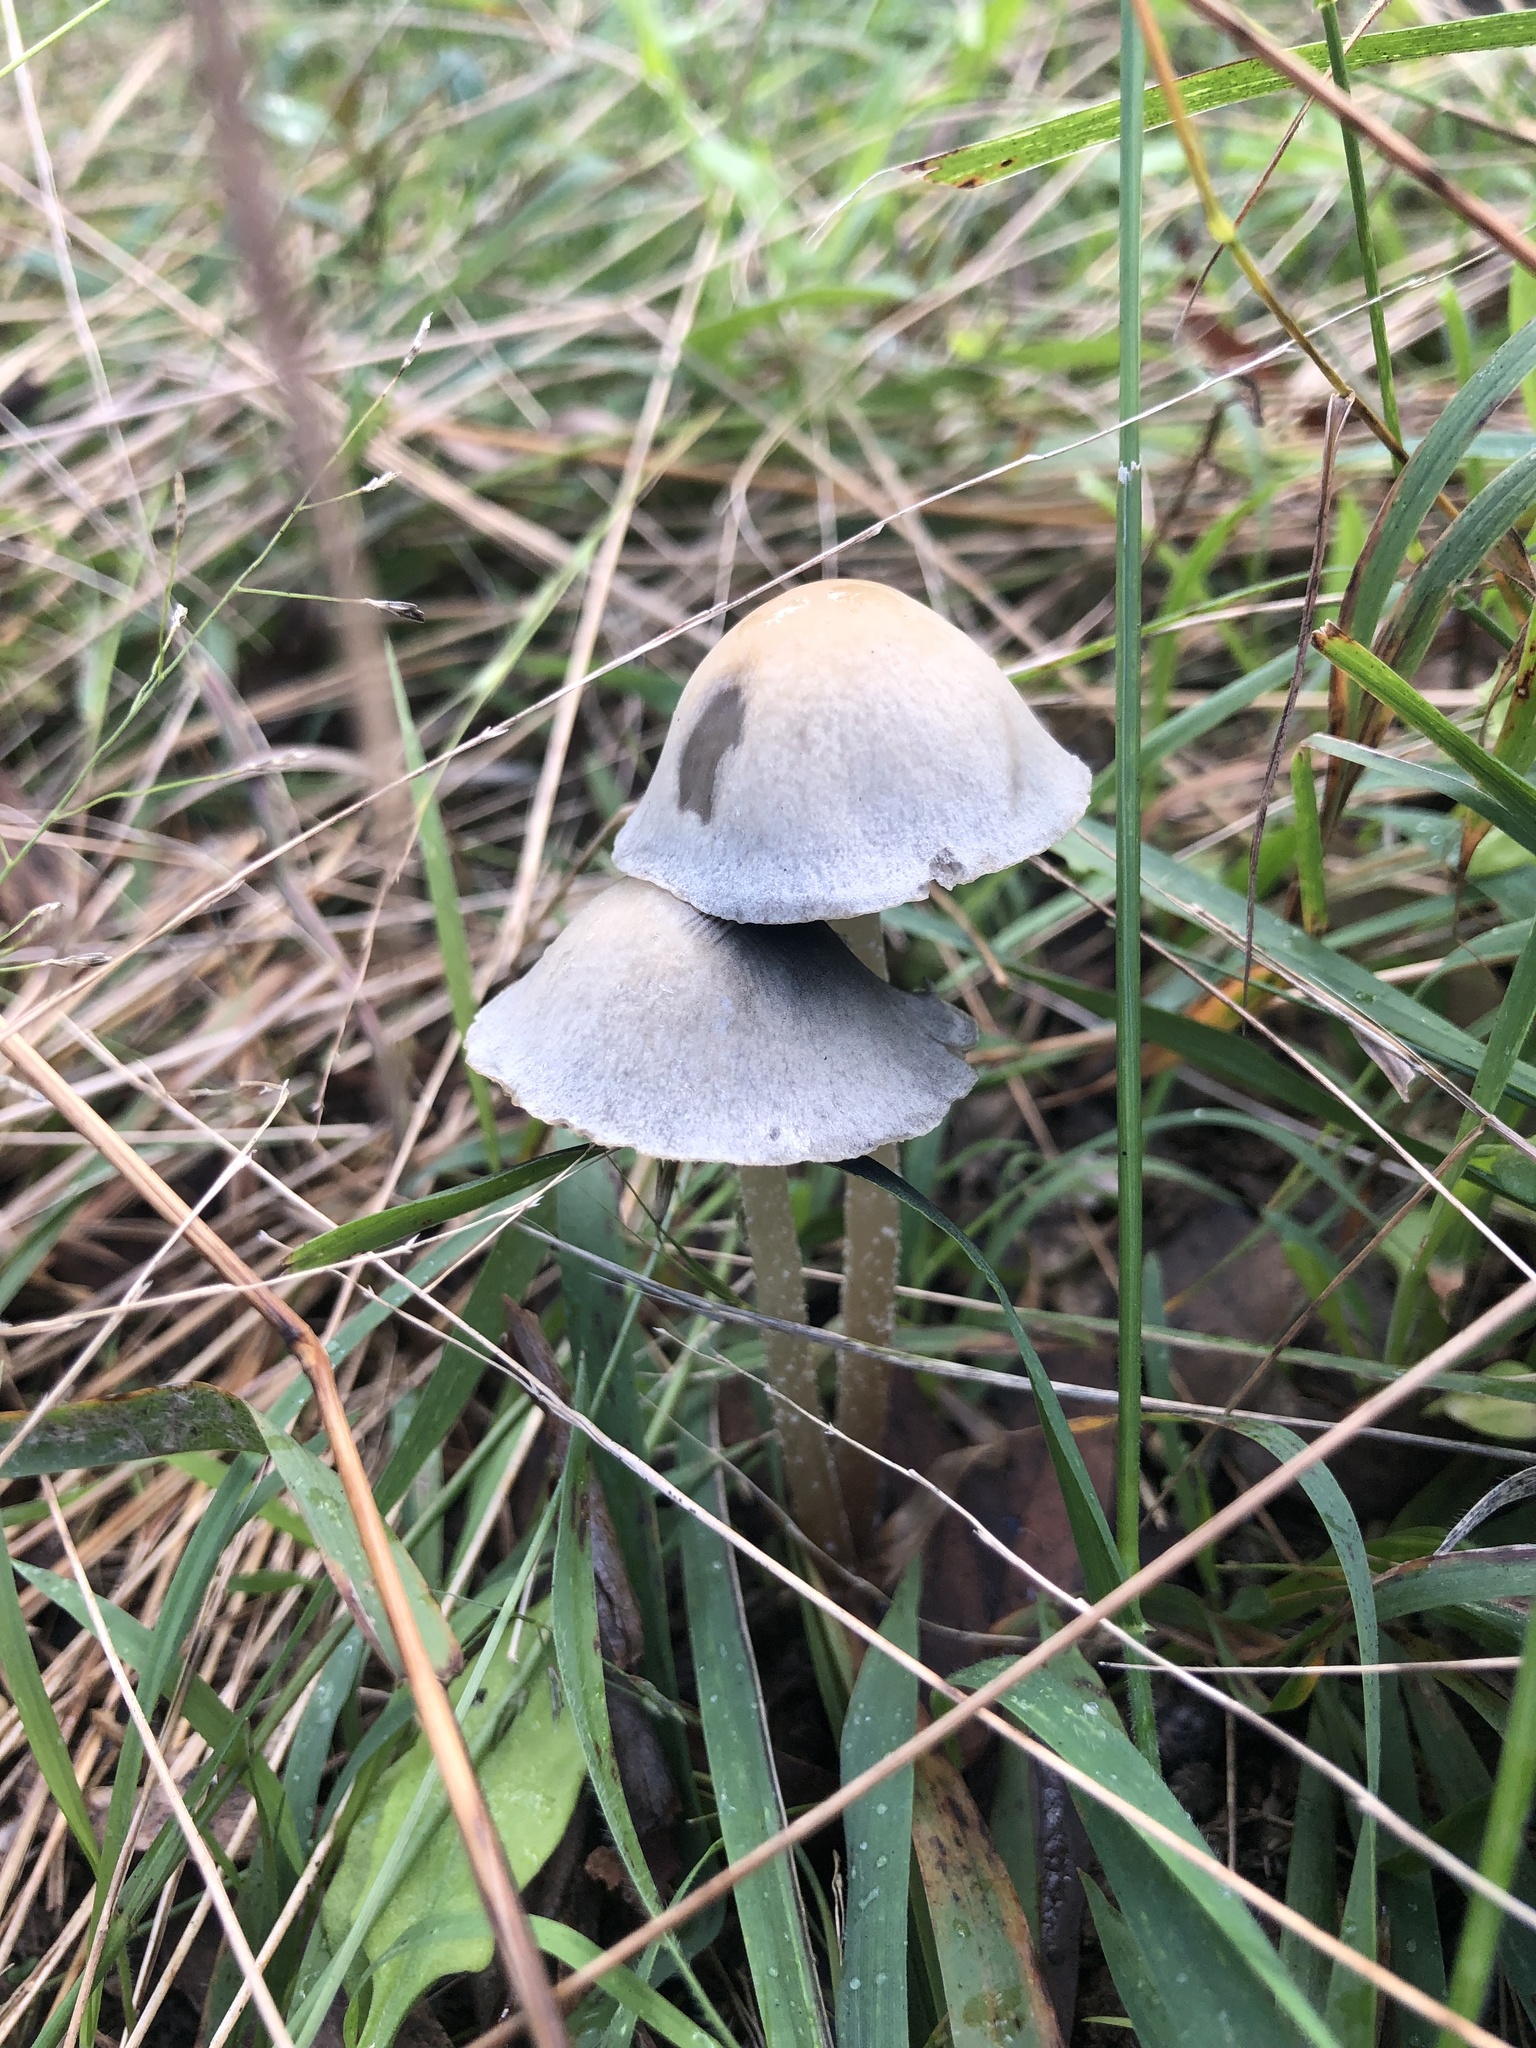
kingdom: Fungi
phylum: Basidiomycota
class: Agaricomycetes
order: Agaricales
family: Bolbitiaceae
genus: Panaeolus
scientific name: Panaeolus cyanescens
